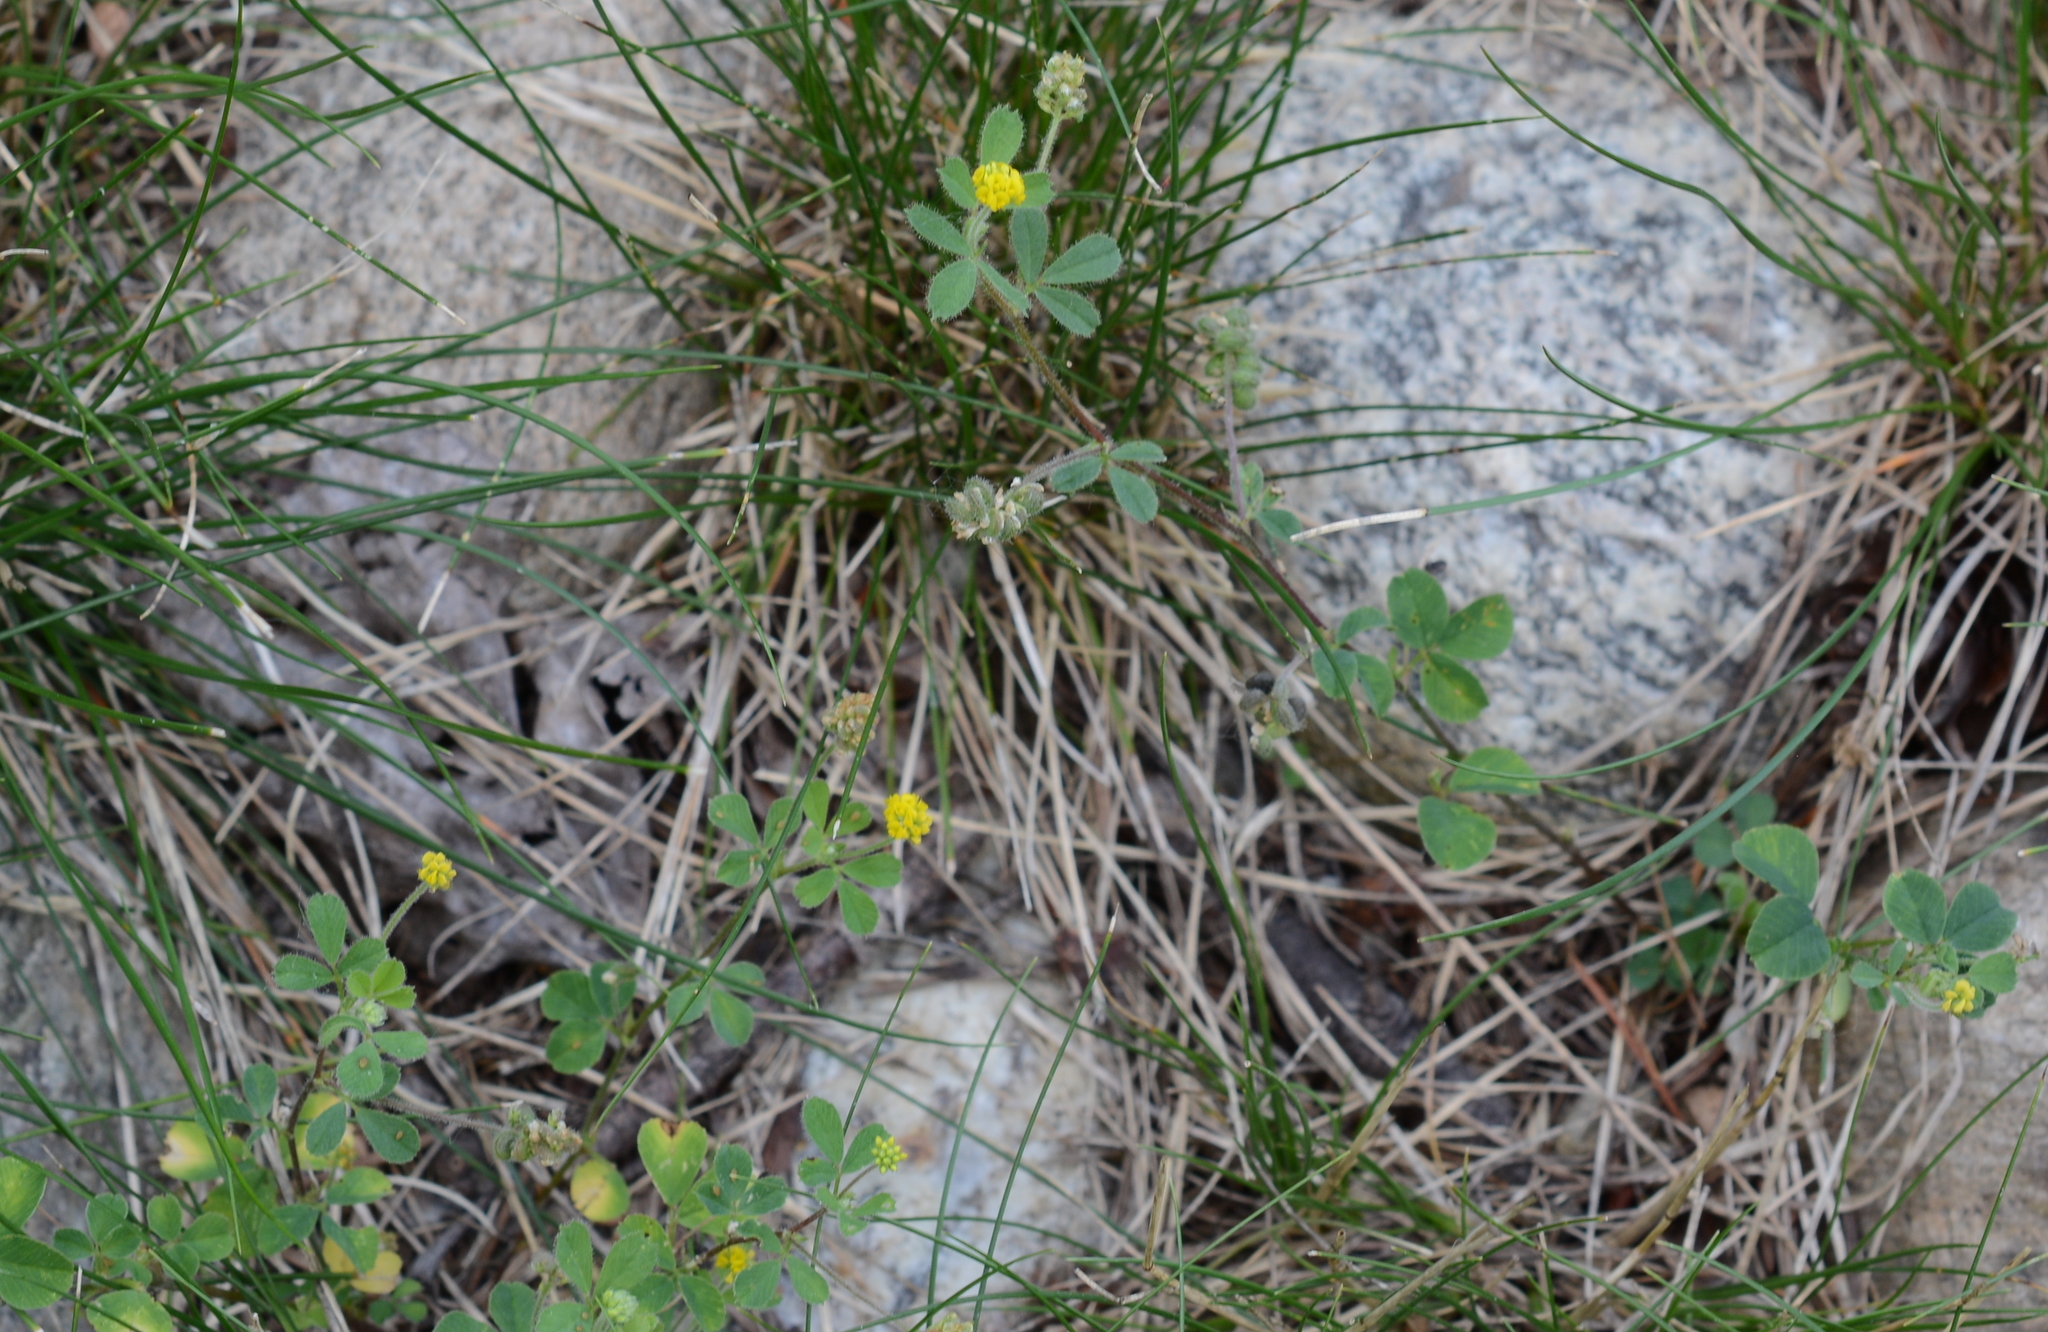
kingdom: Plantae
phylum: Tracheophyta
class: Magnoliopsida
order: Fabales
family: Fabaceae
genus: Medicago
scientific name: Medicago lupulina
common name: Black medick
